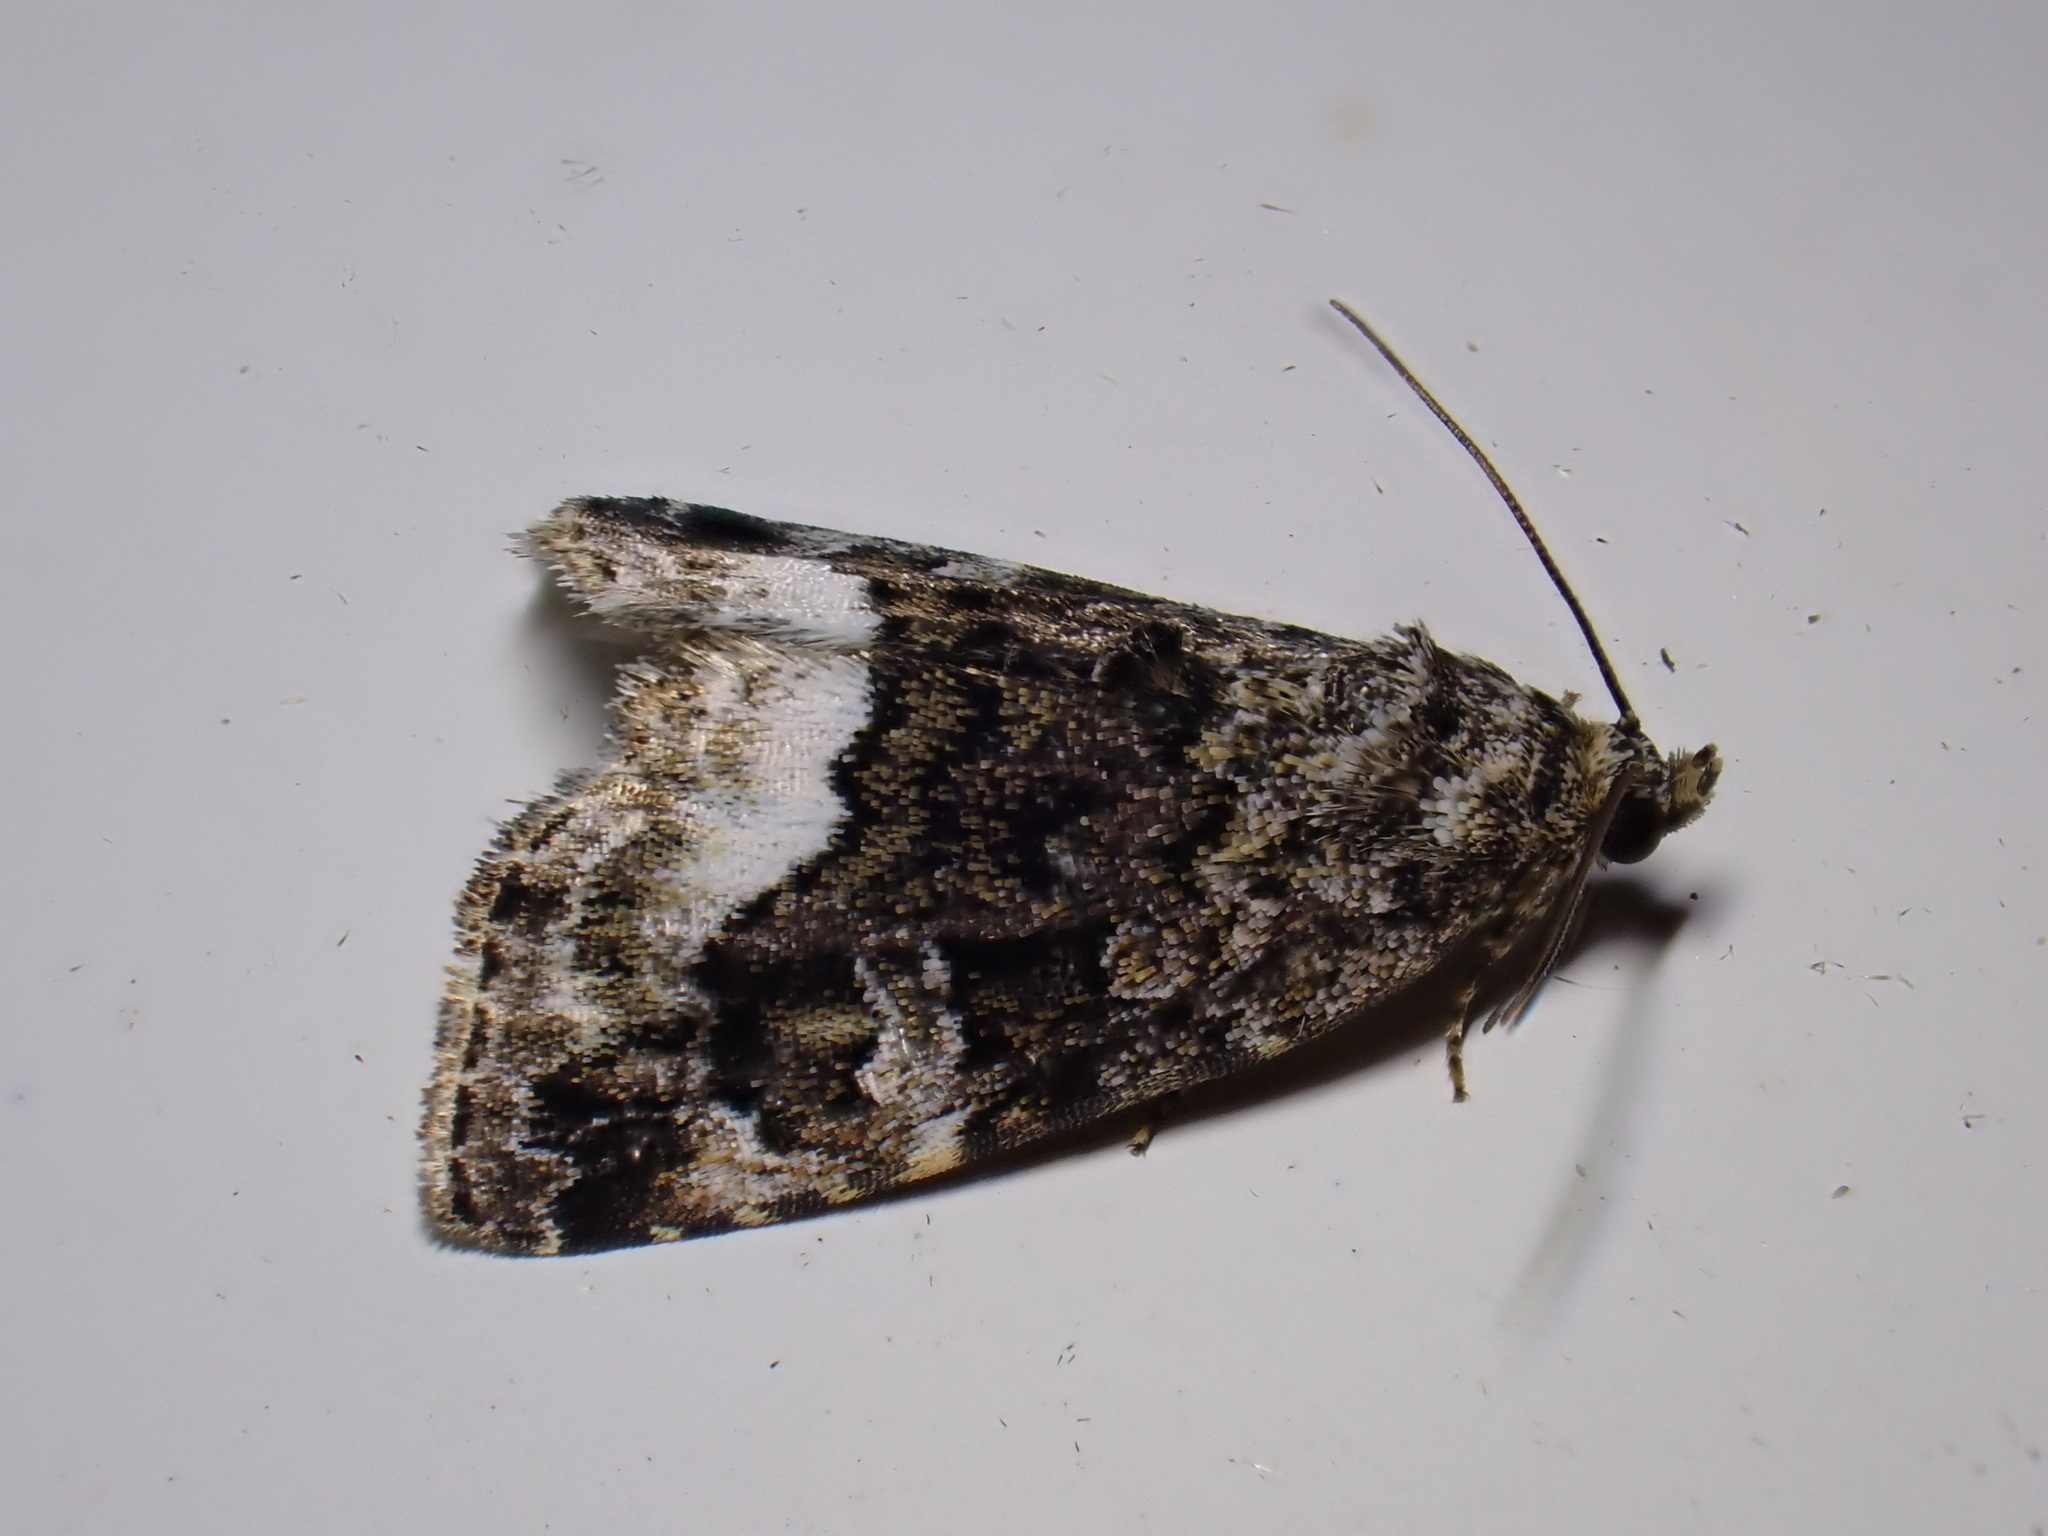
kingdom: Animalia
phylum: Arthropoda
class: Insecta
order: Lepidoptera
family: Noctuidae
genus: Deltote
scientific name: Deltote pygarga
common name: Marbled white spot
